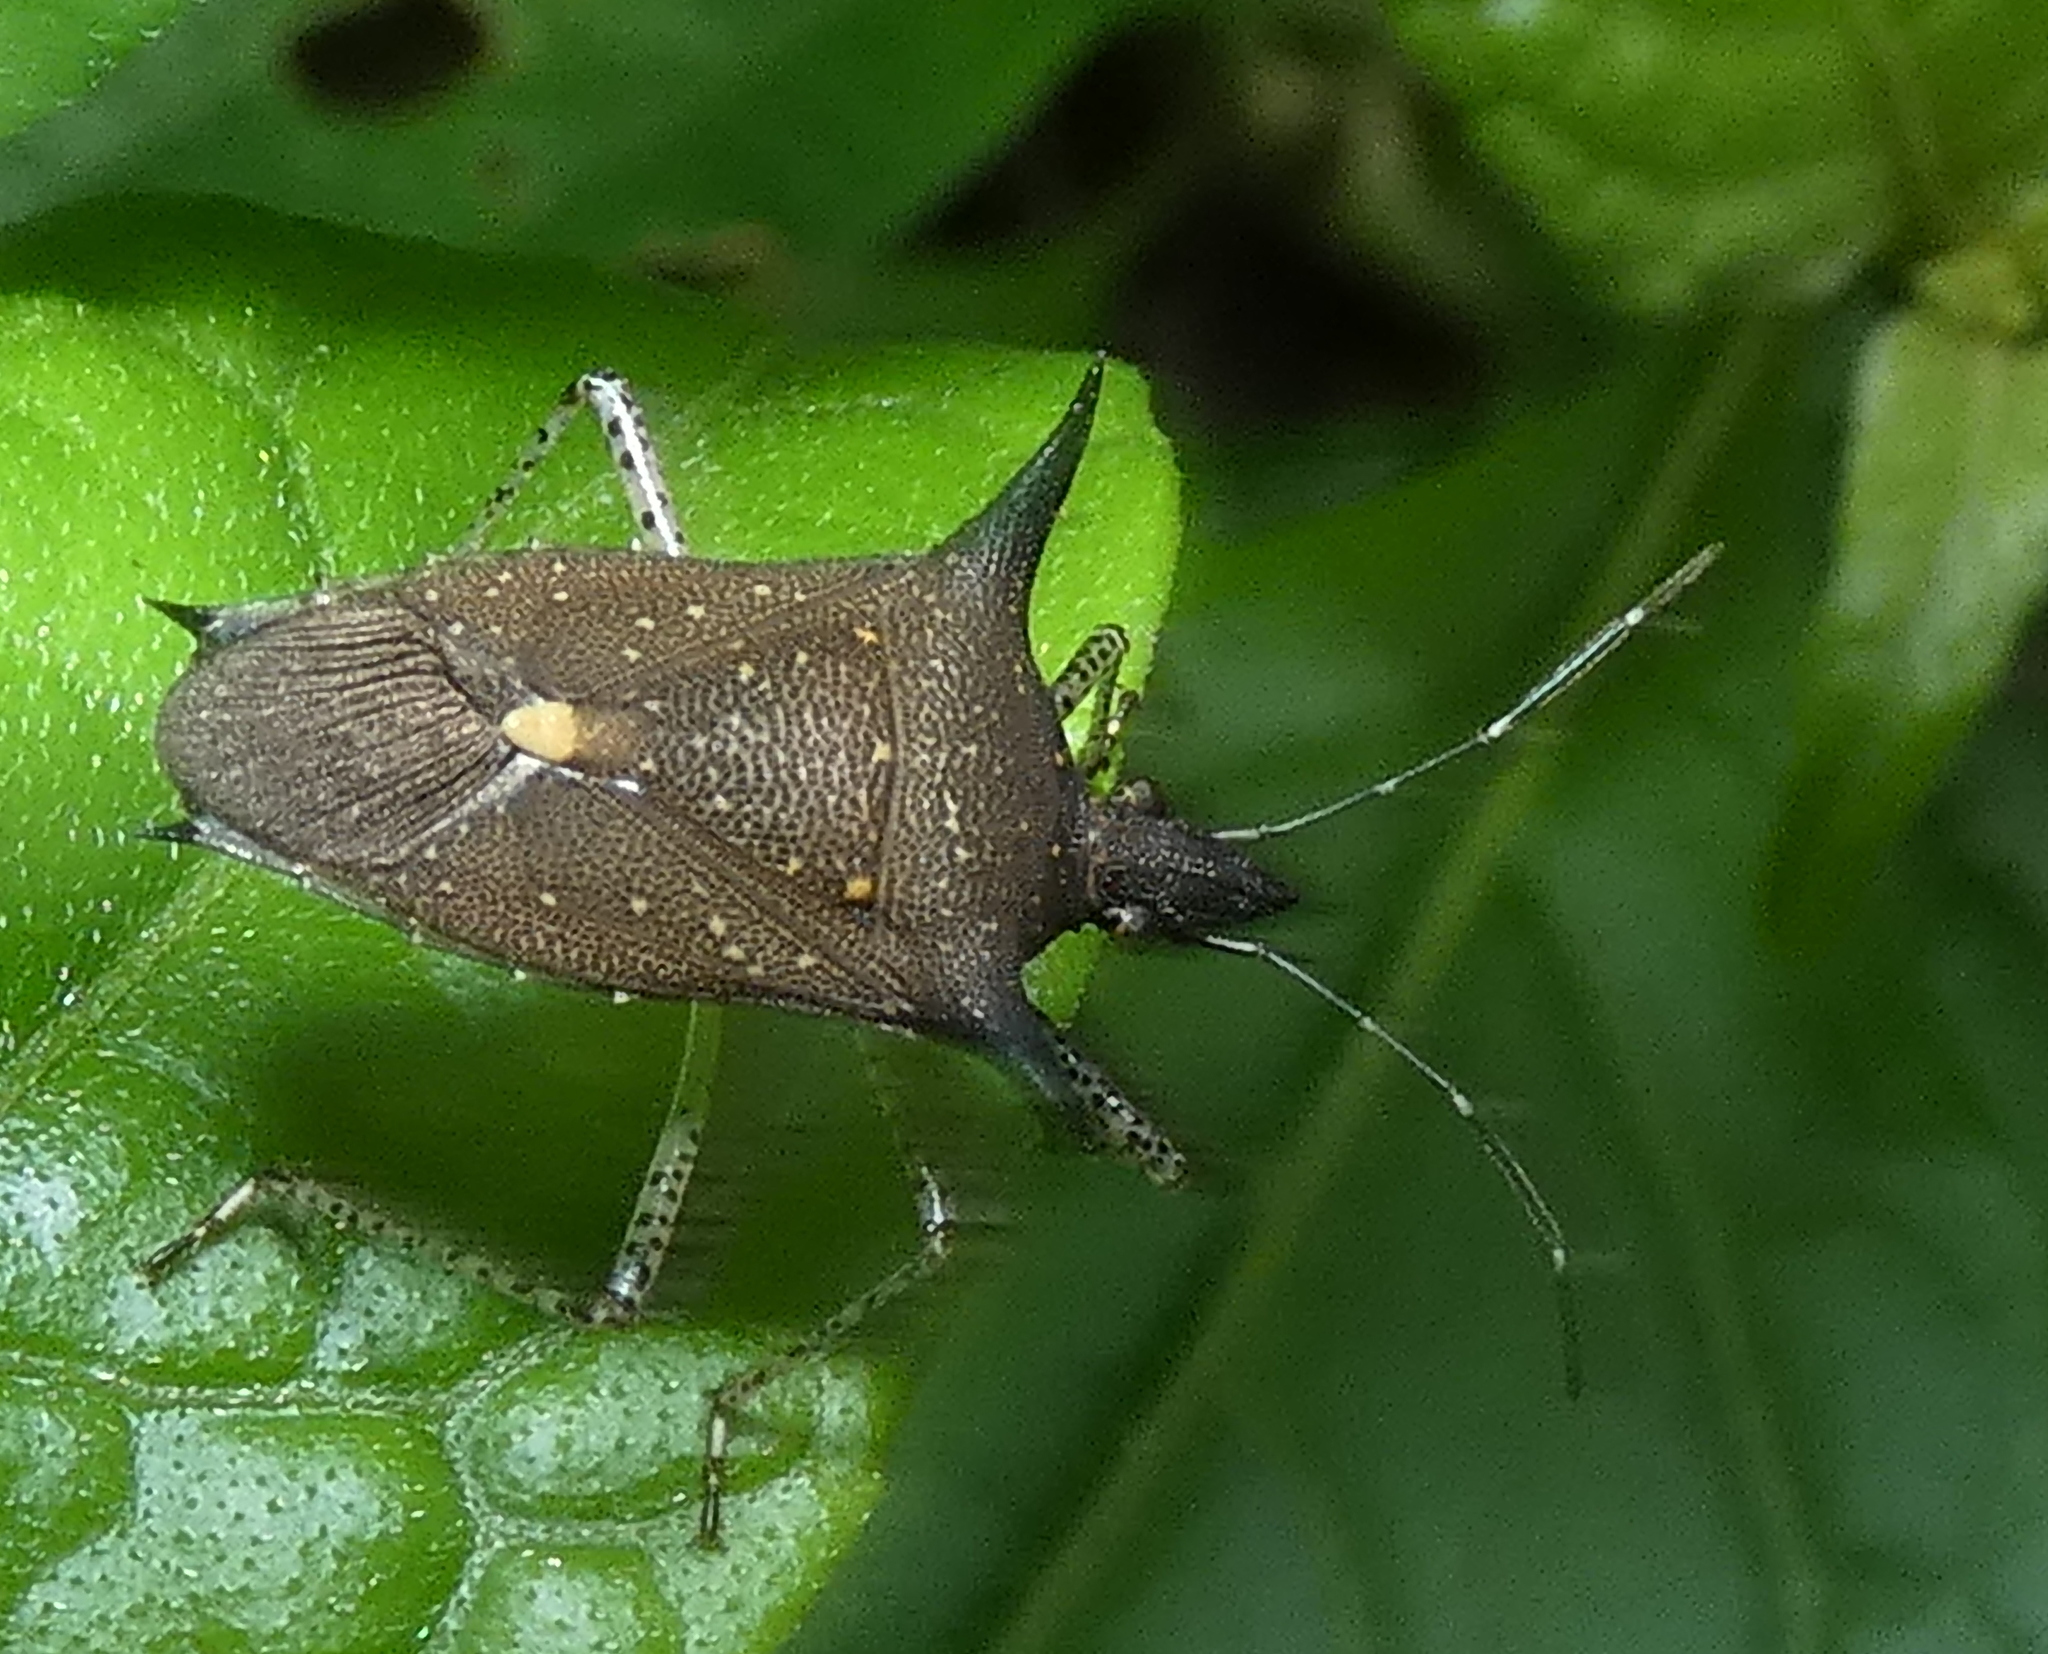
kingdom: Animalia
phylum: Arthropoda
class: Insecta
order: Hemiptera
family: Pentatomidae
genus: Proxys
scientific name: Proxys albopunctulatus
